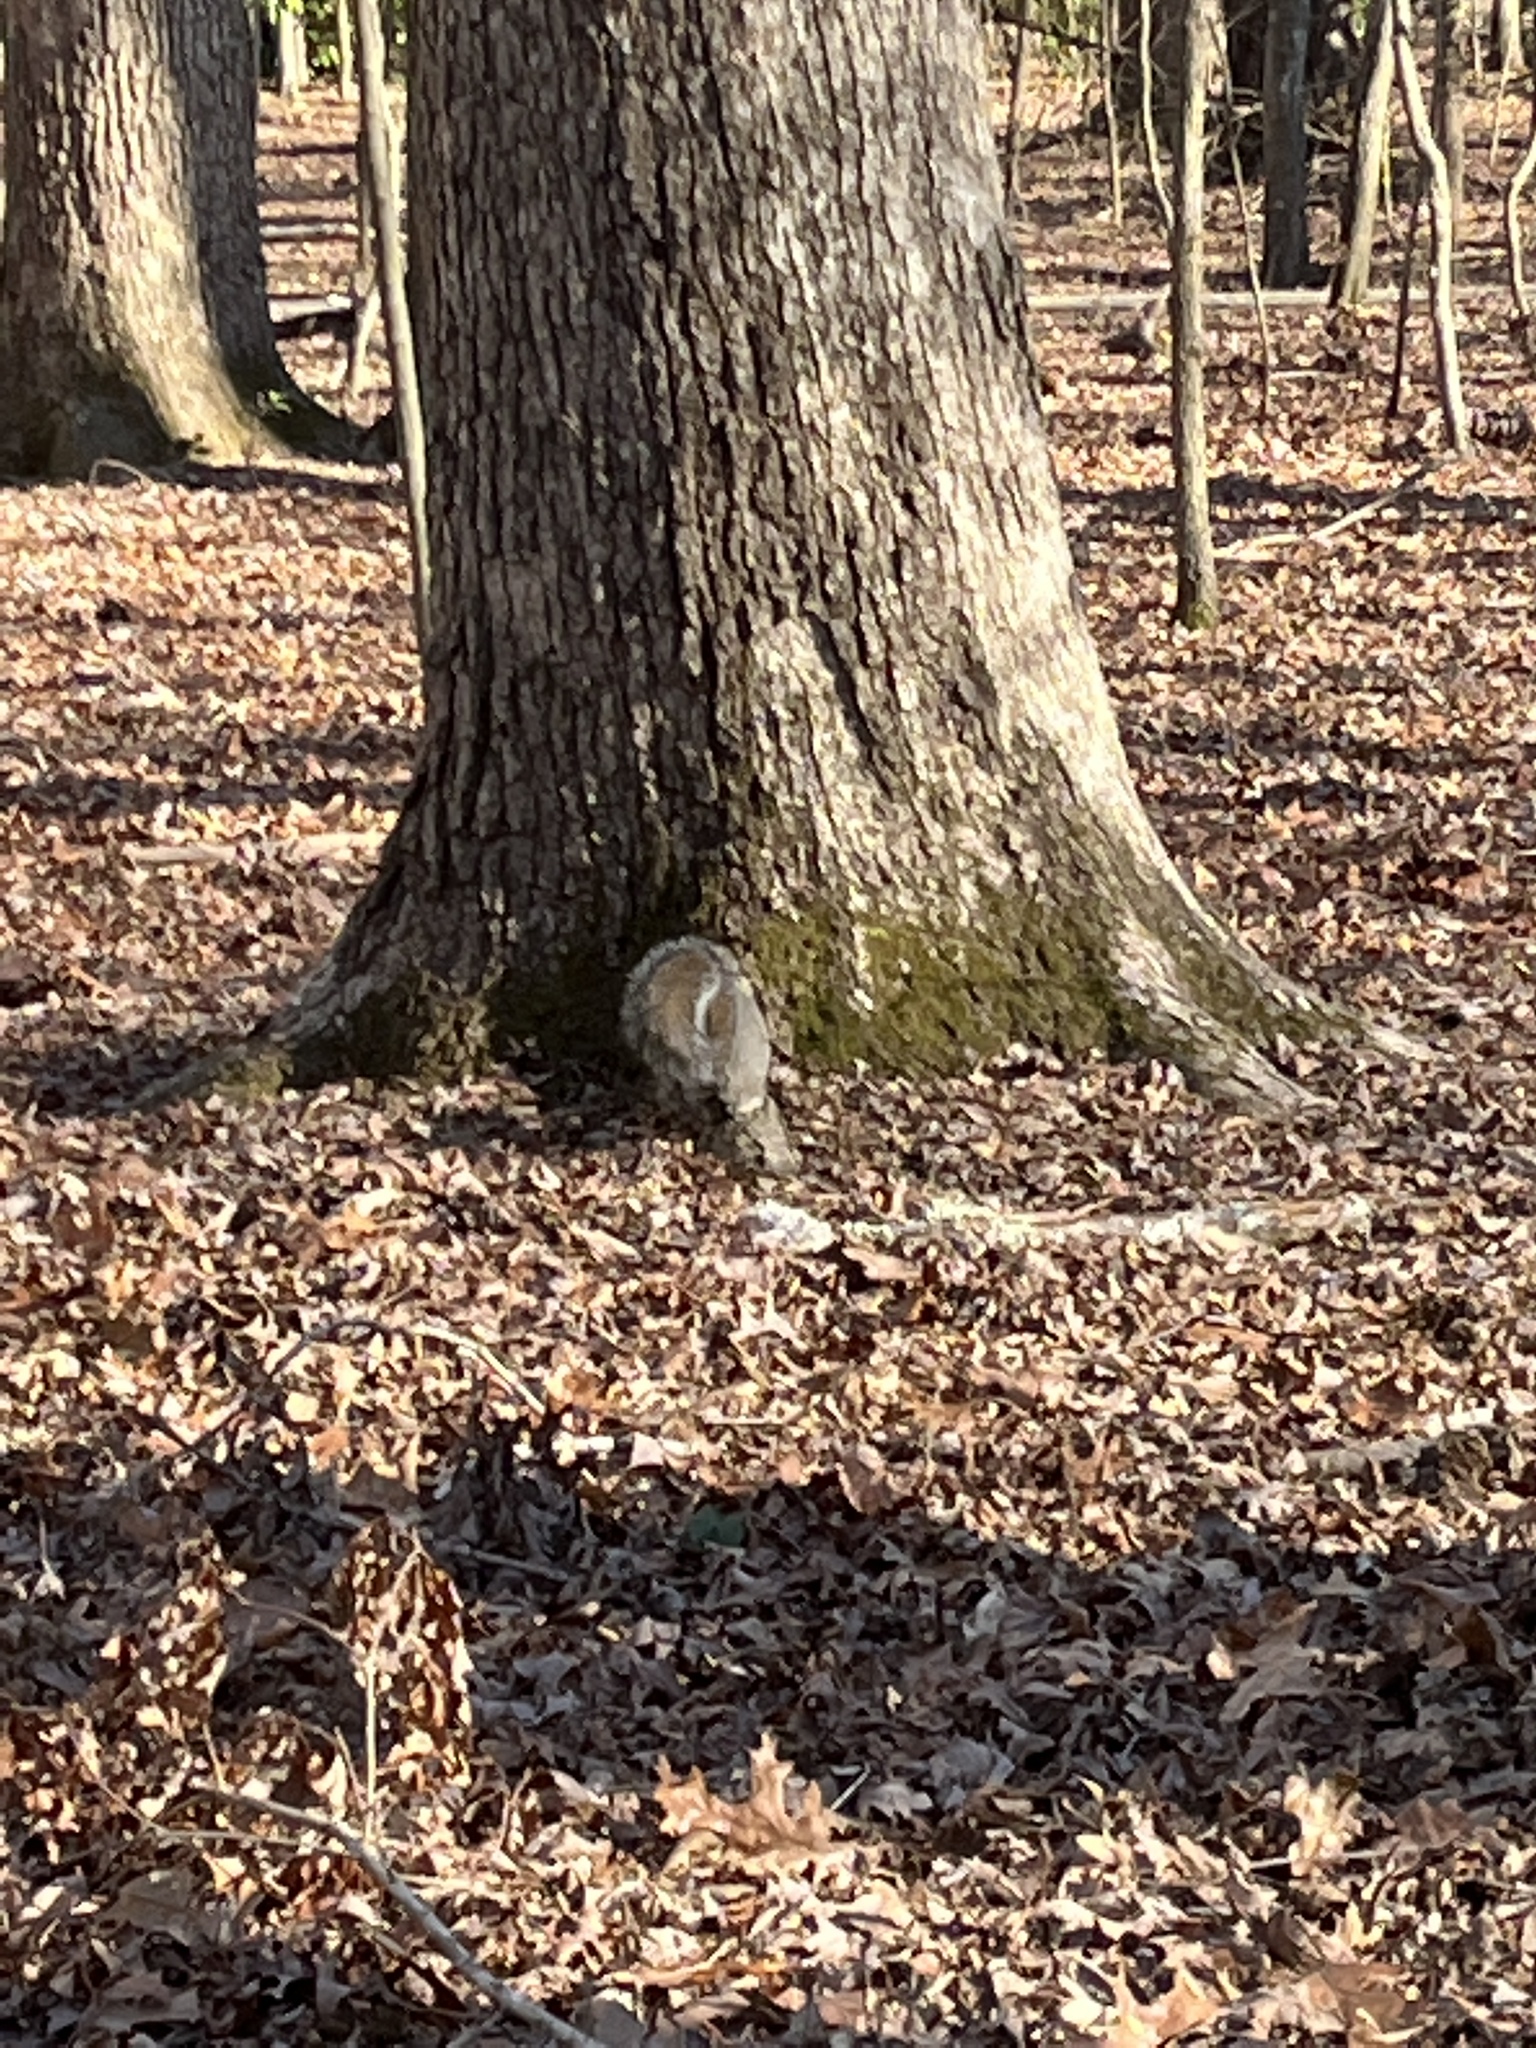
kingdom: Animalia
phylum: Chordata
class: Mammalia
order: Rodentia
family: Sciuridae
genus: Sciurus
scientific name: Sciurus carolinensis
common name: Eastern gray squirrel
